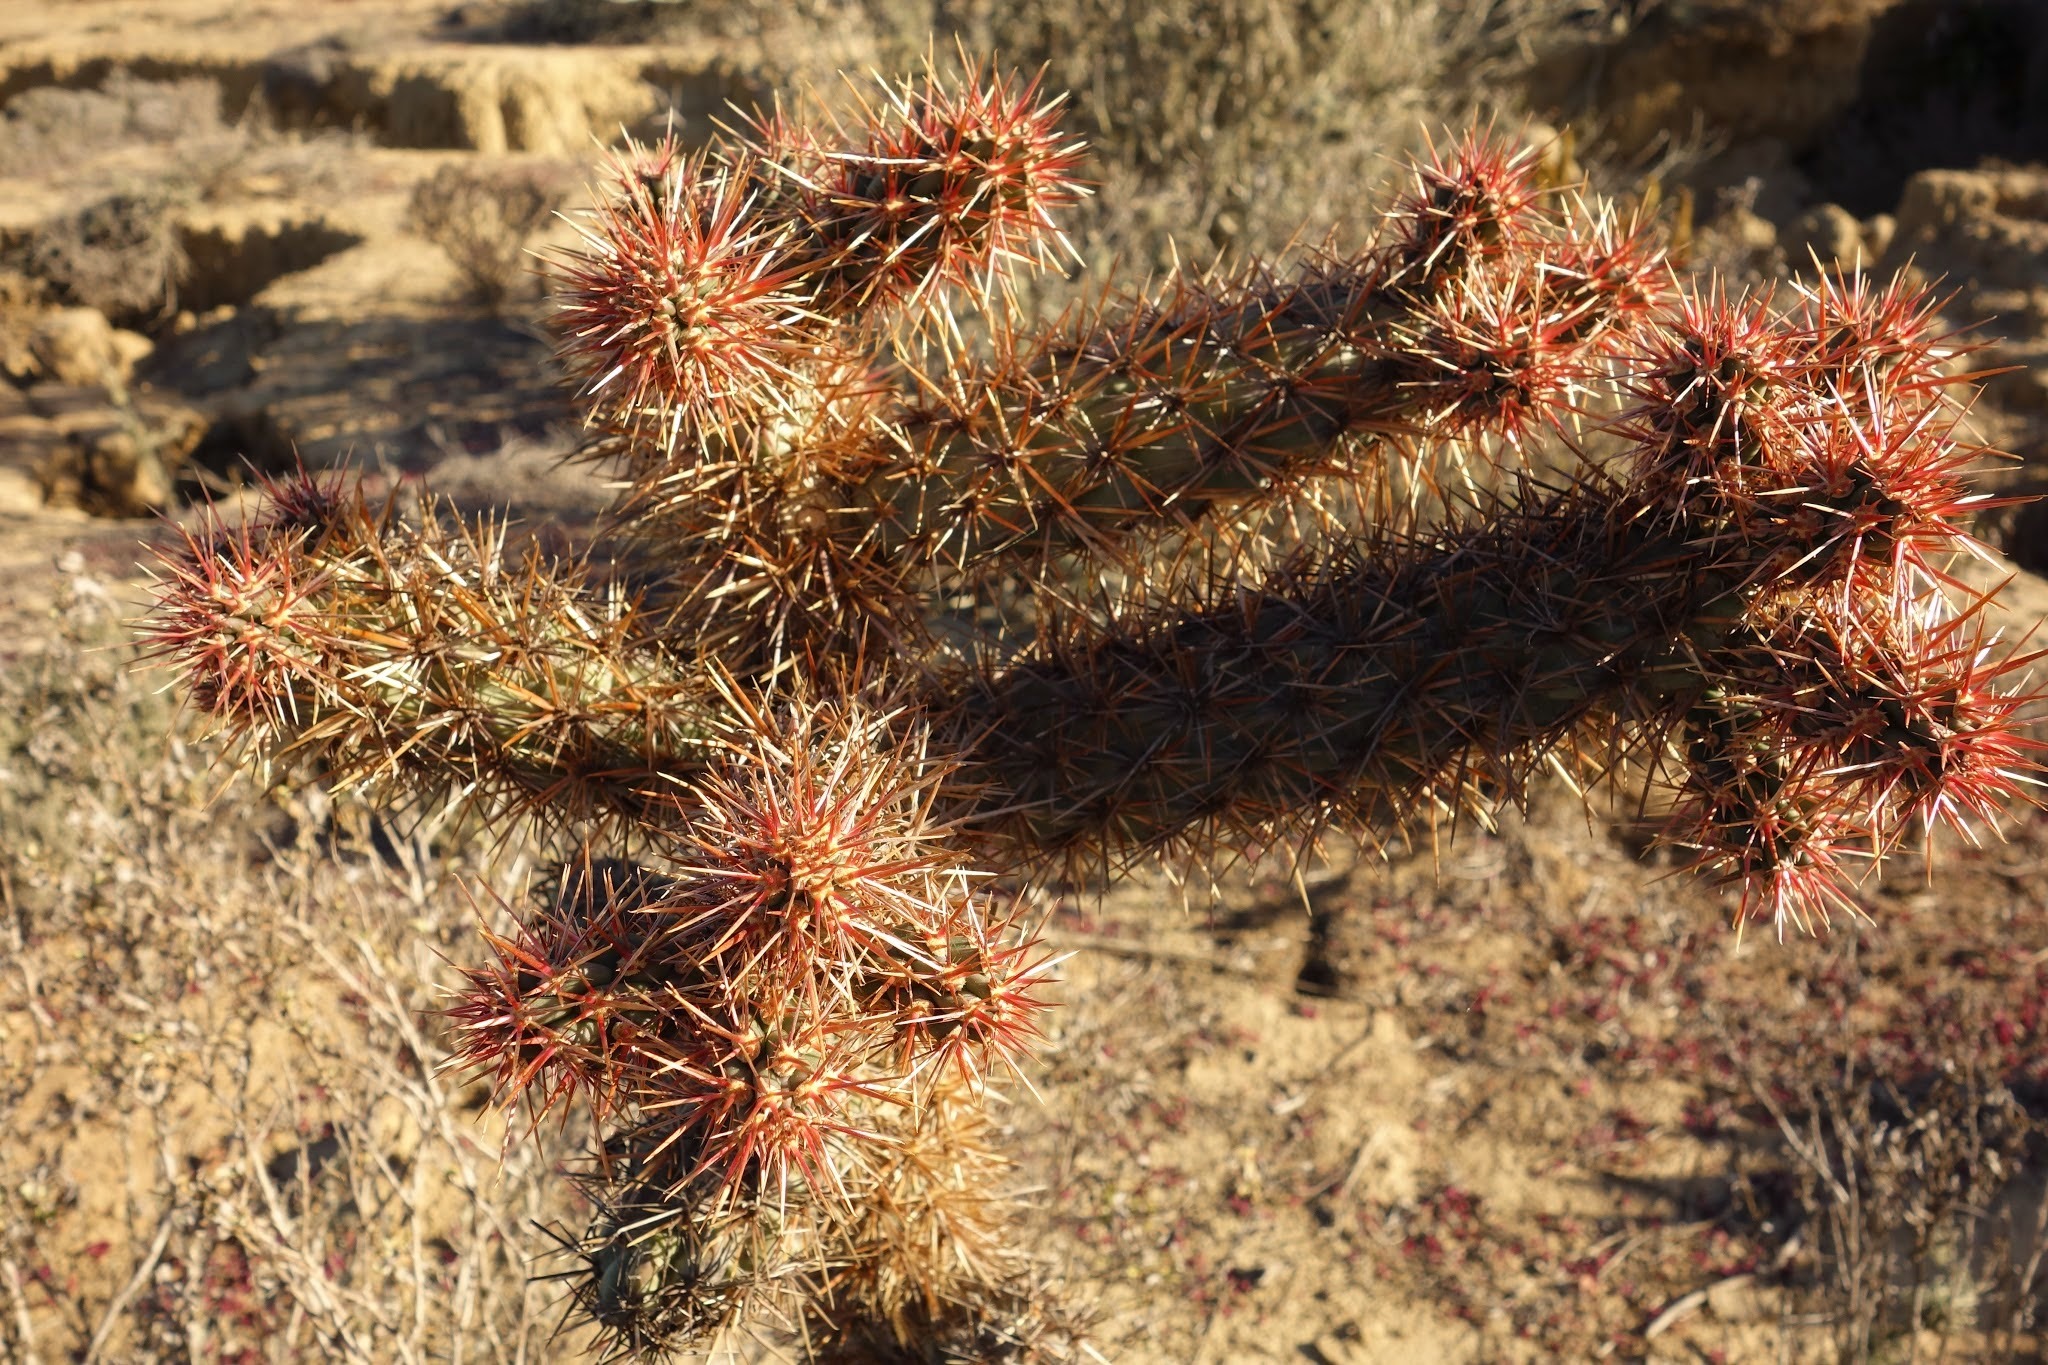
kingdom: Plantae
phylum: Tracheophyta
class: Magnoliopsida
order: Caryophyllales
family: Cactaceae
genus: Cylindropuntia
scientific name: Cylindropuntia prolifera
